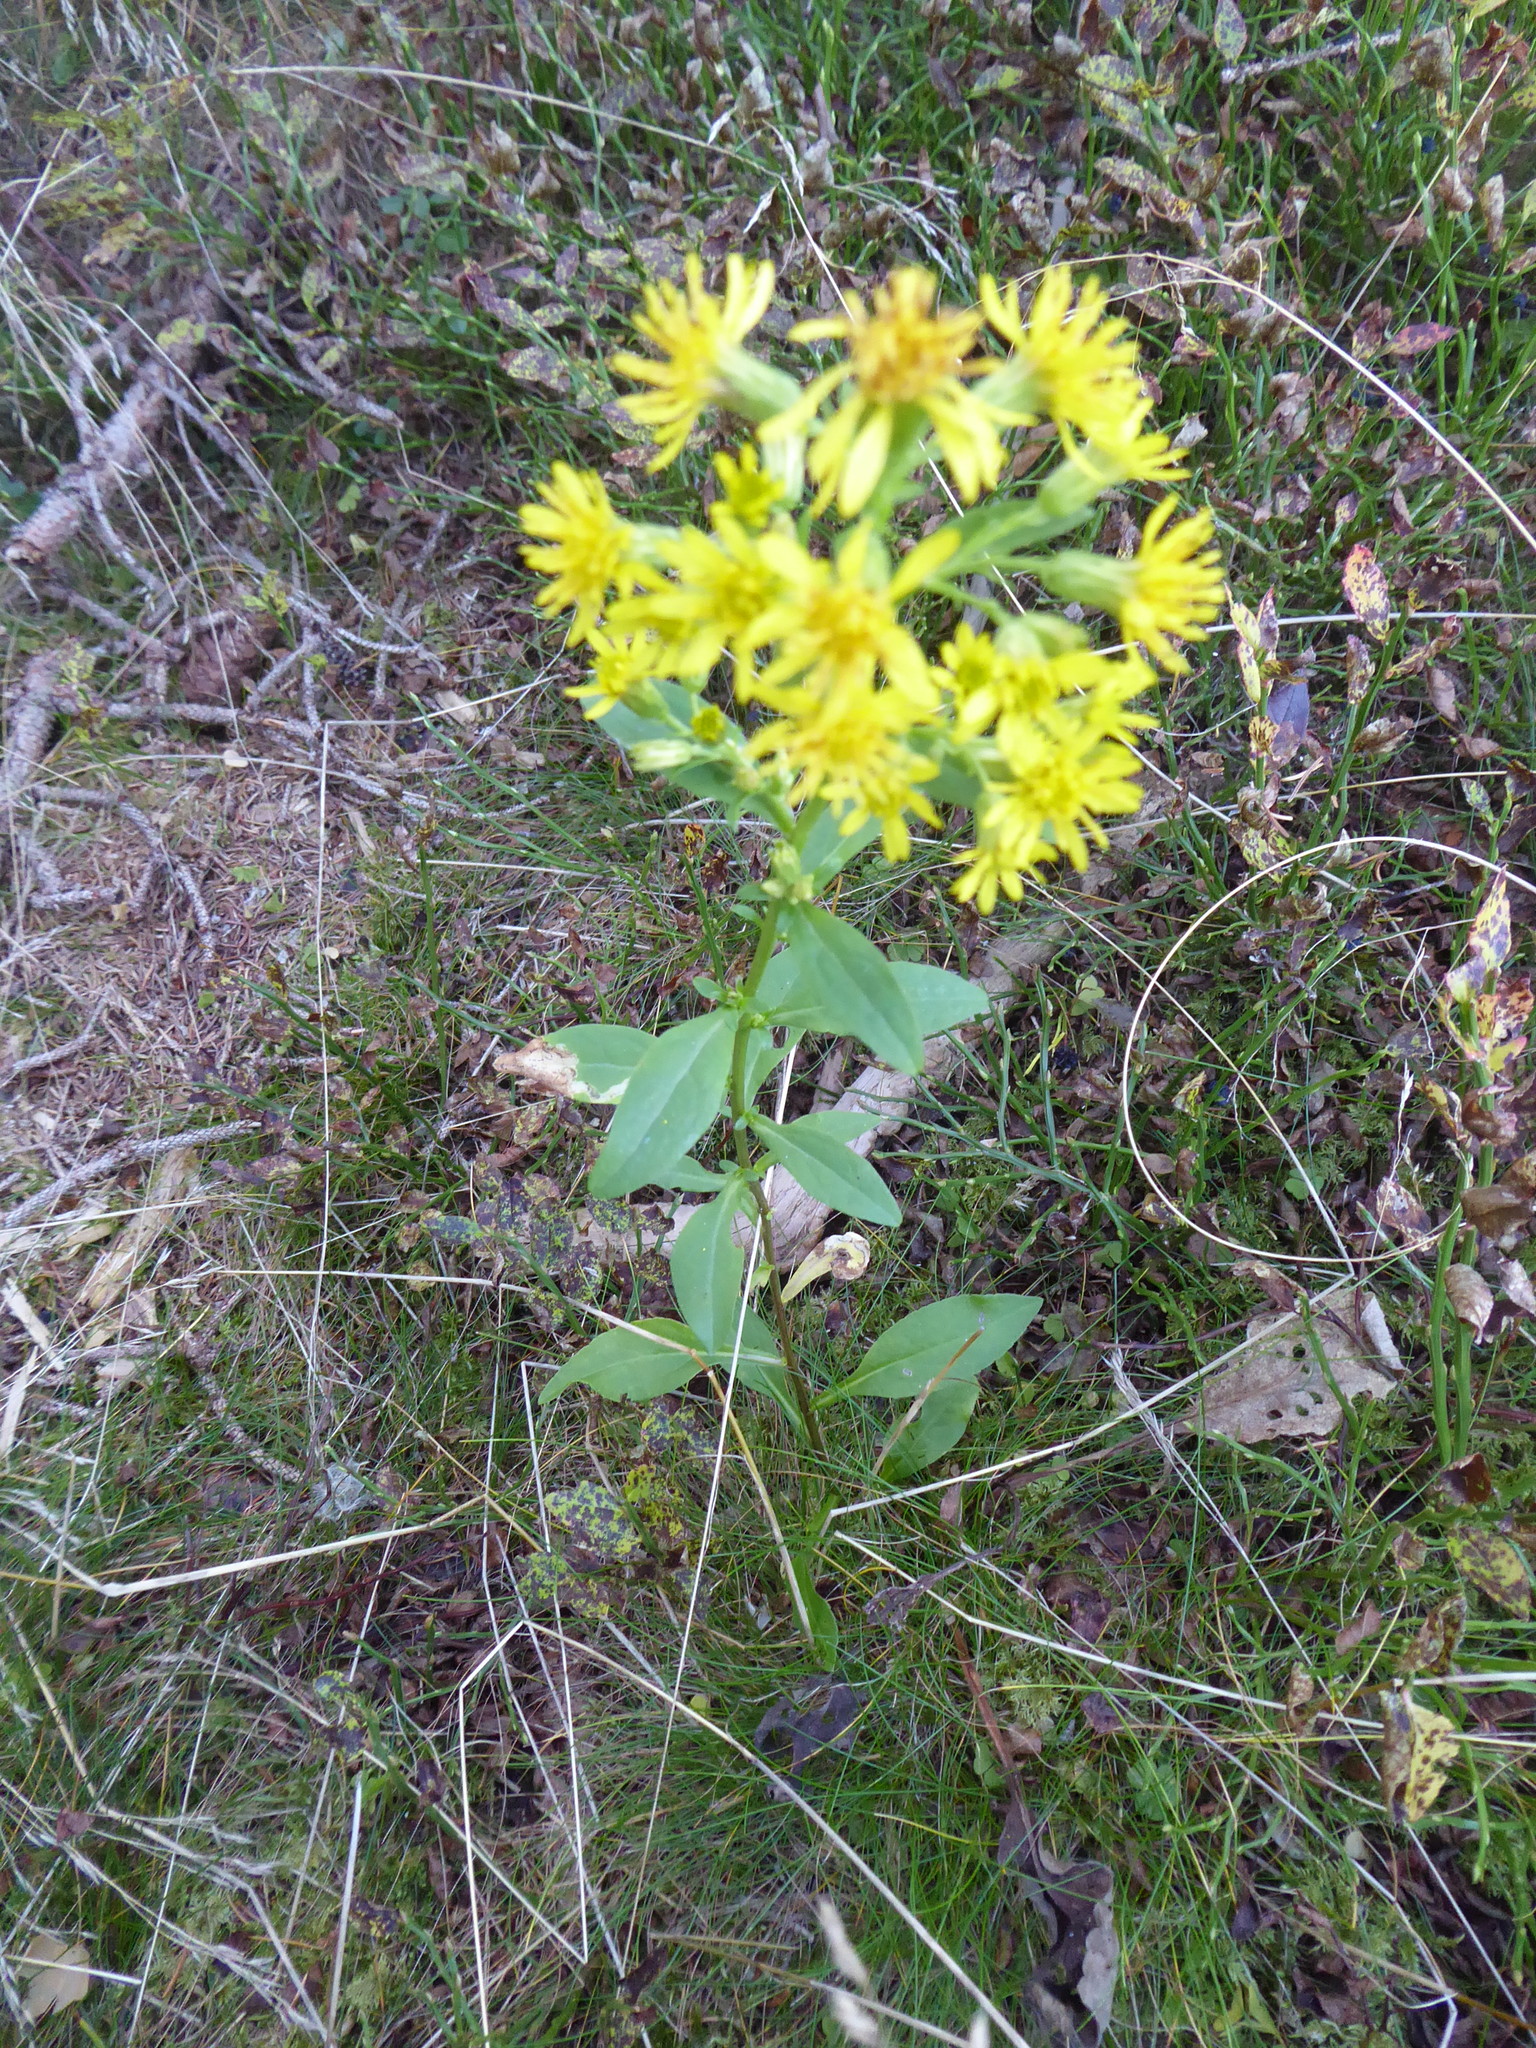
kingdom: Plantae
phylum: Tracheophyta
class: Magnoliopsida
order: Asterales
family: Asteraceae
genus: Solidago
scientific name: Solidago virgaurea
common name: Goldenrod
